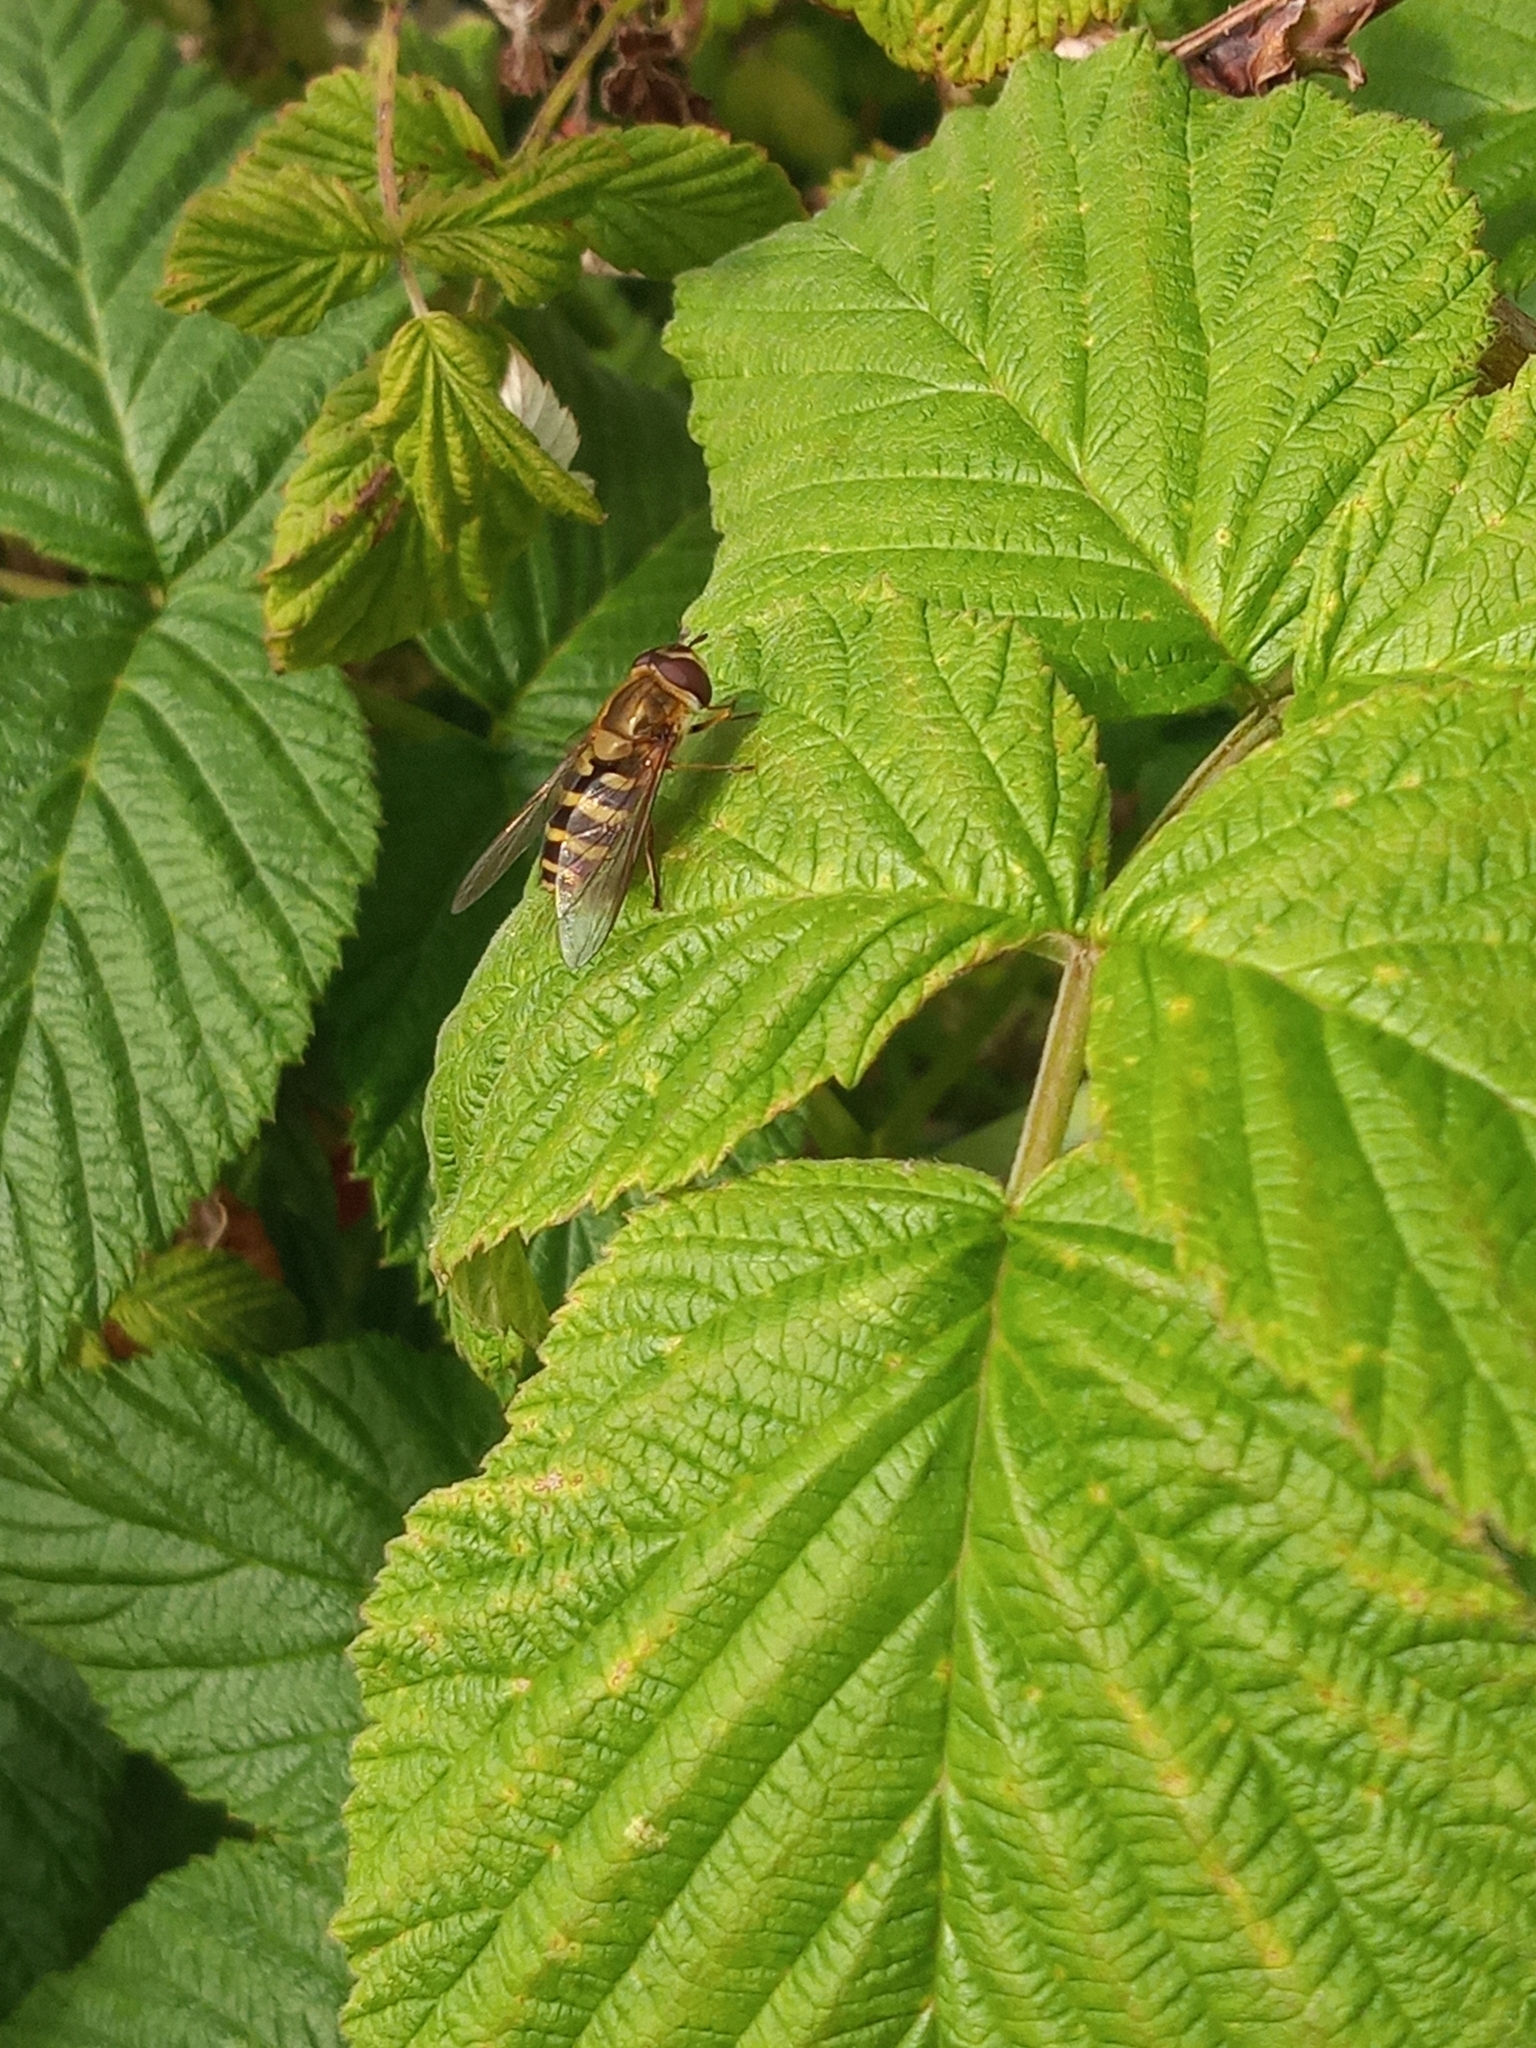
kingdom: Animalia
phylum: Arthropoda
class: Insecta
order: Diptera
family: Syrphidae
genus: Syrphus
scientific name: Syrphus
